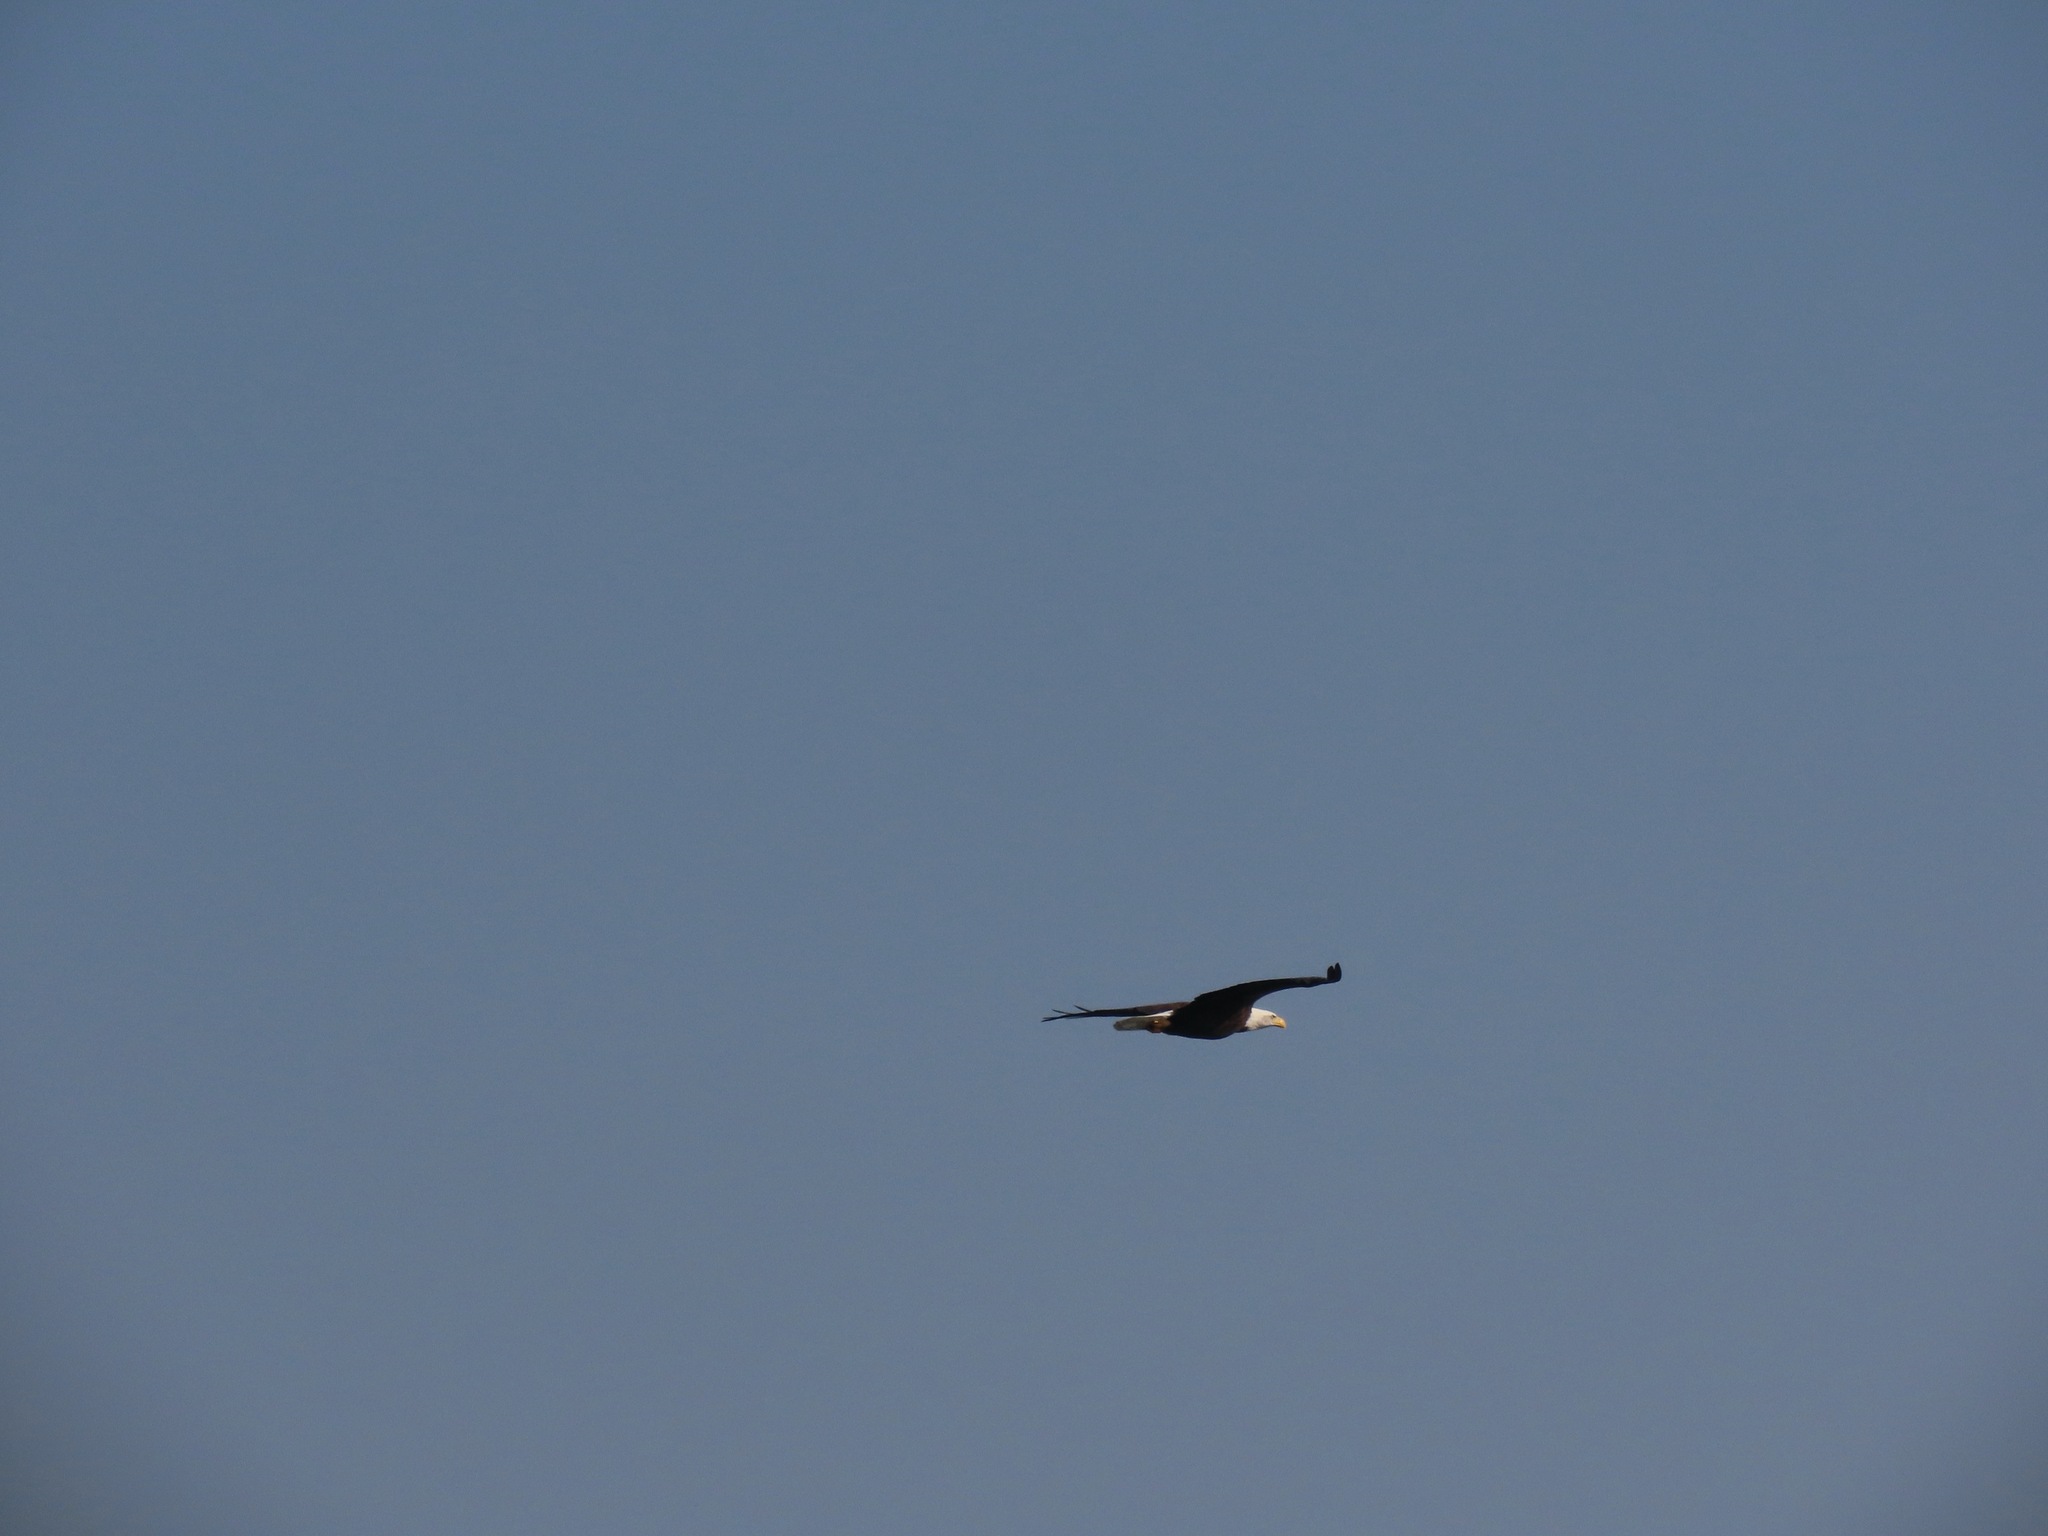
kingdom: Animalia
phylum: Chordata
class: Aves
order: Accipitriformes
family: Accipitridae
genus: Haliaeetus
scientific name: Haliaeetus leucocephalus
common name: Bald eagle
